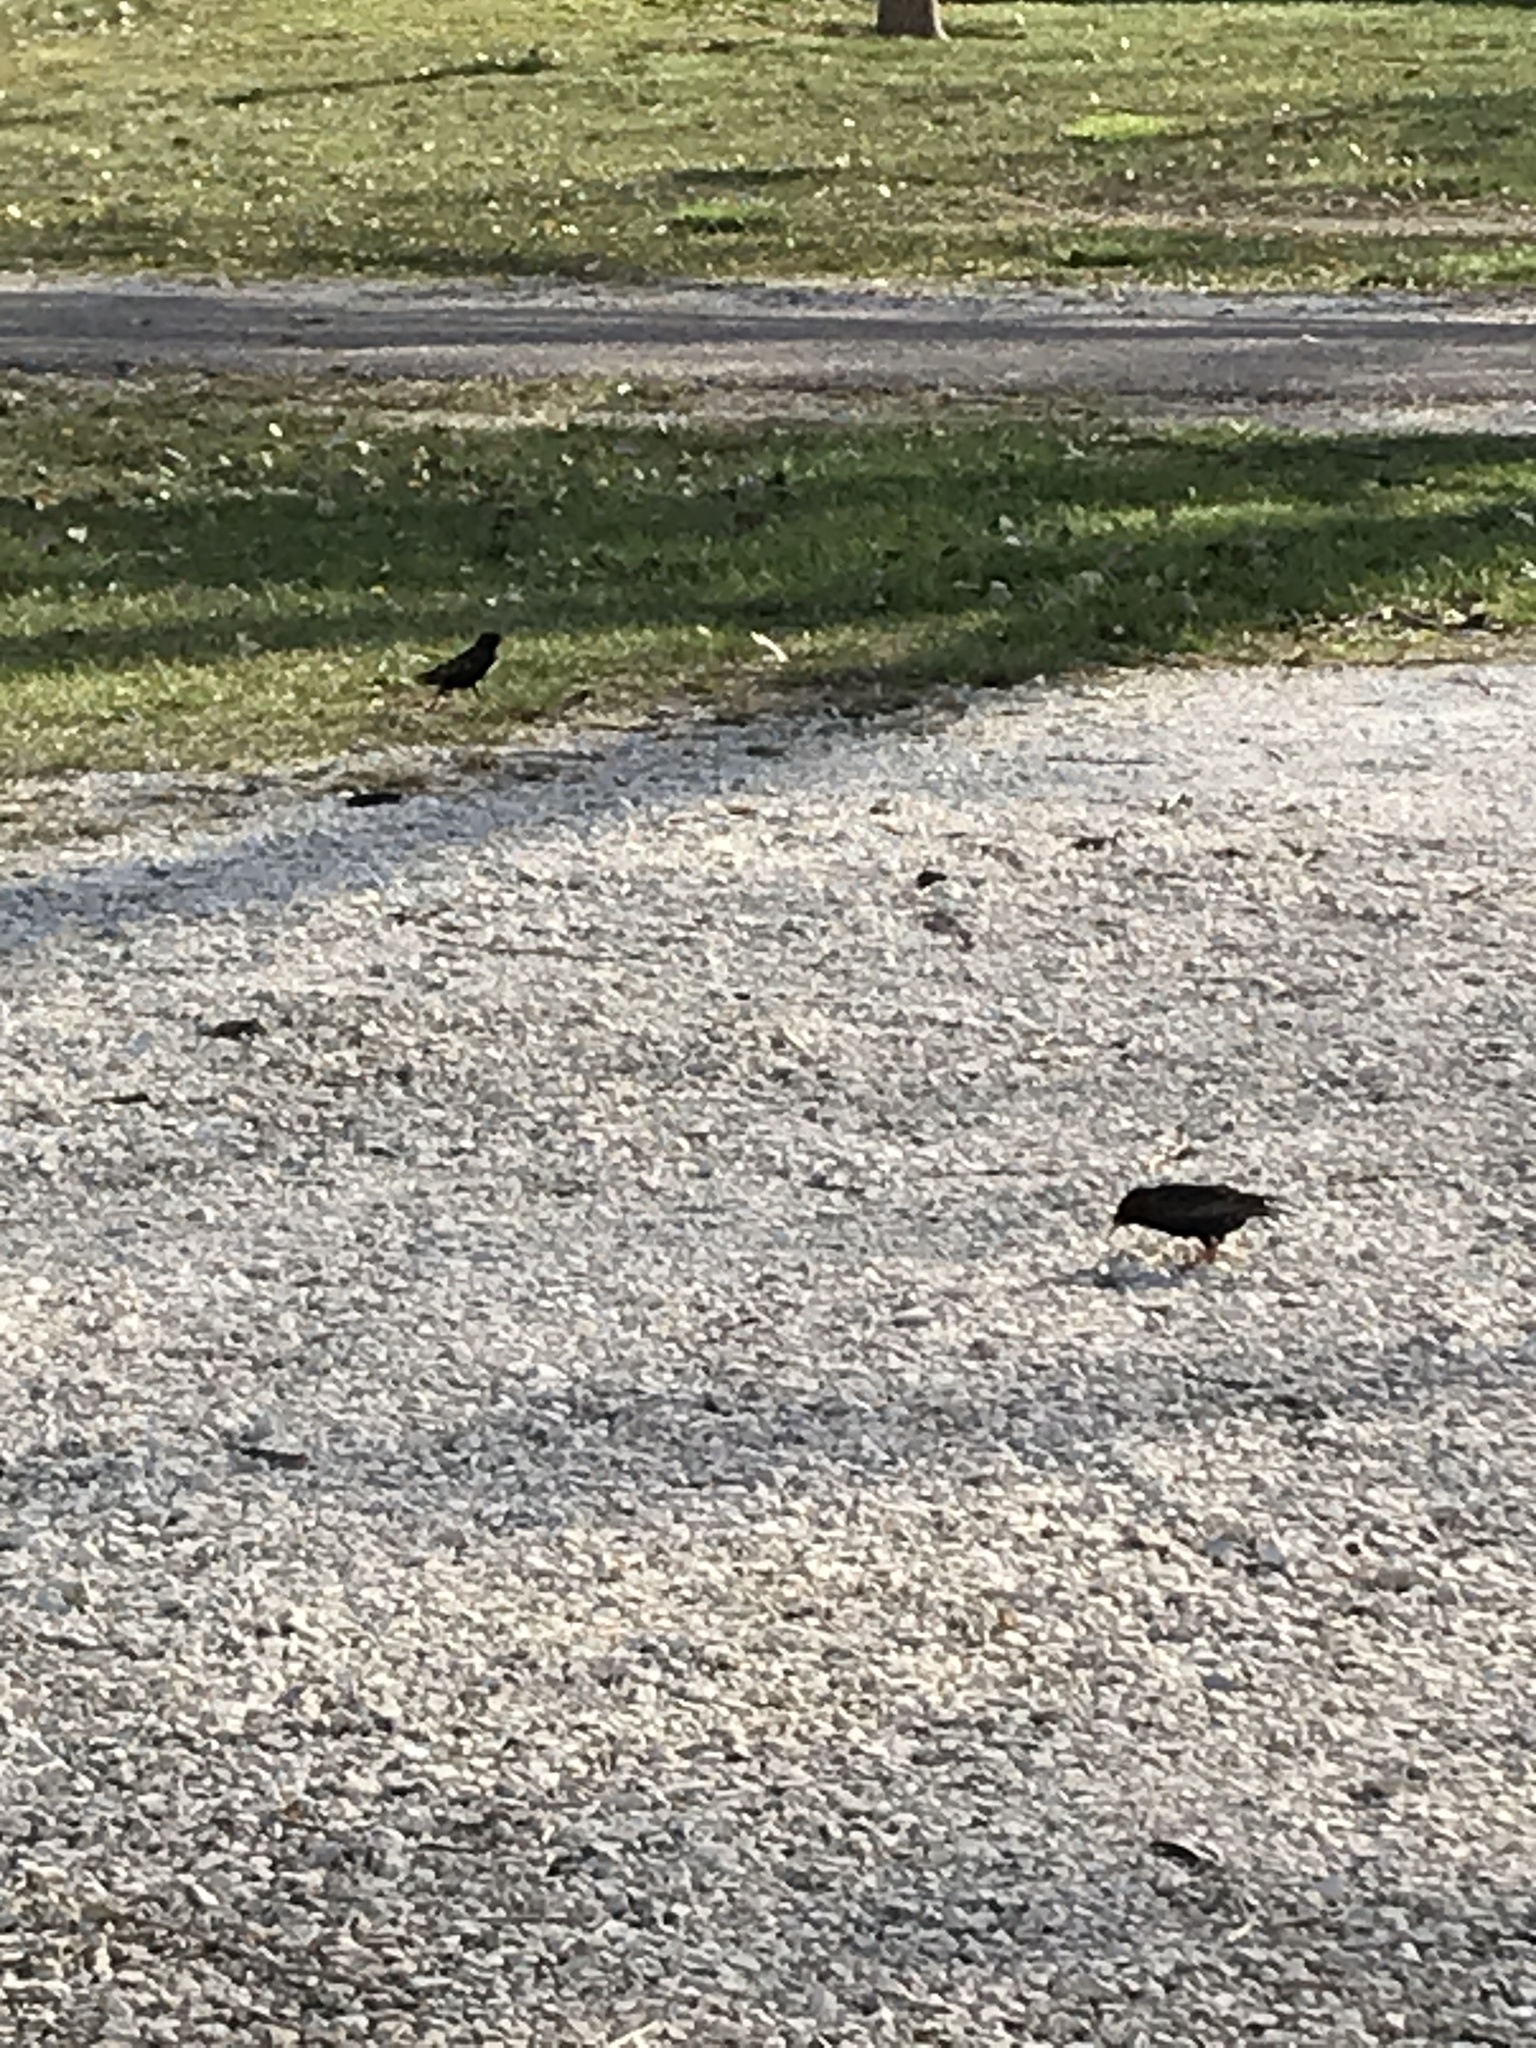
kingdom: Animalia
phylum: Chordata
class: Aves
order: Passeriformes
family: Sturnidae
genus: Sturnus
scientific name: Sturnus vulgaris
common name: Common starling
